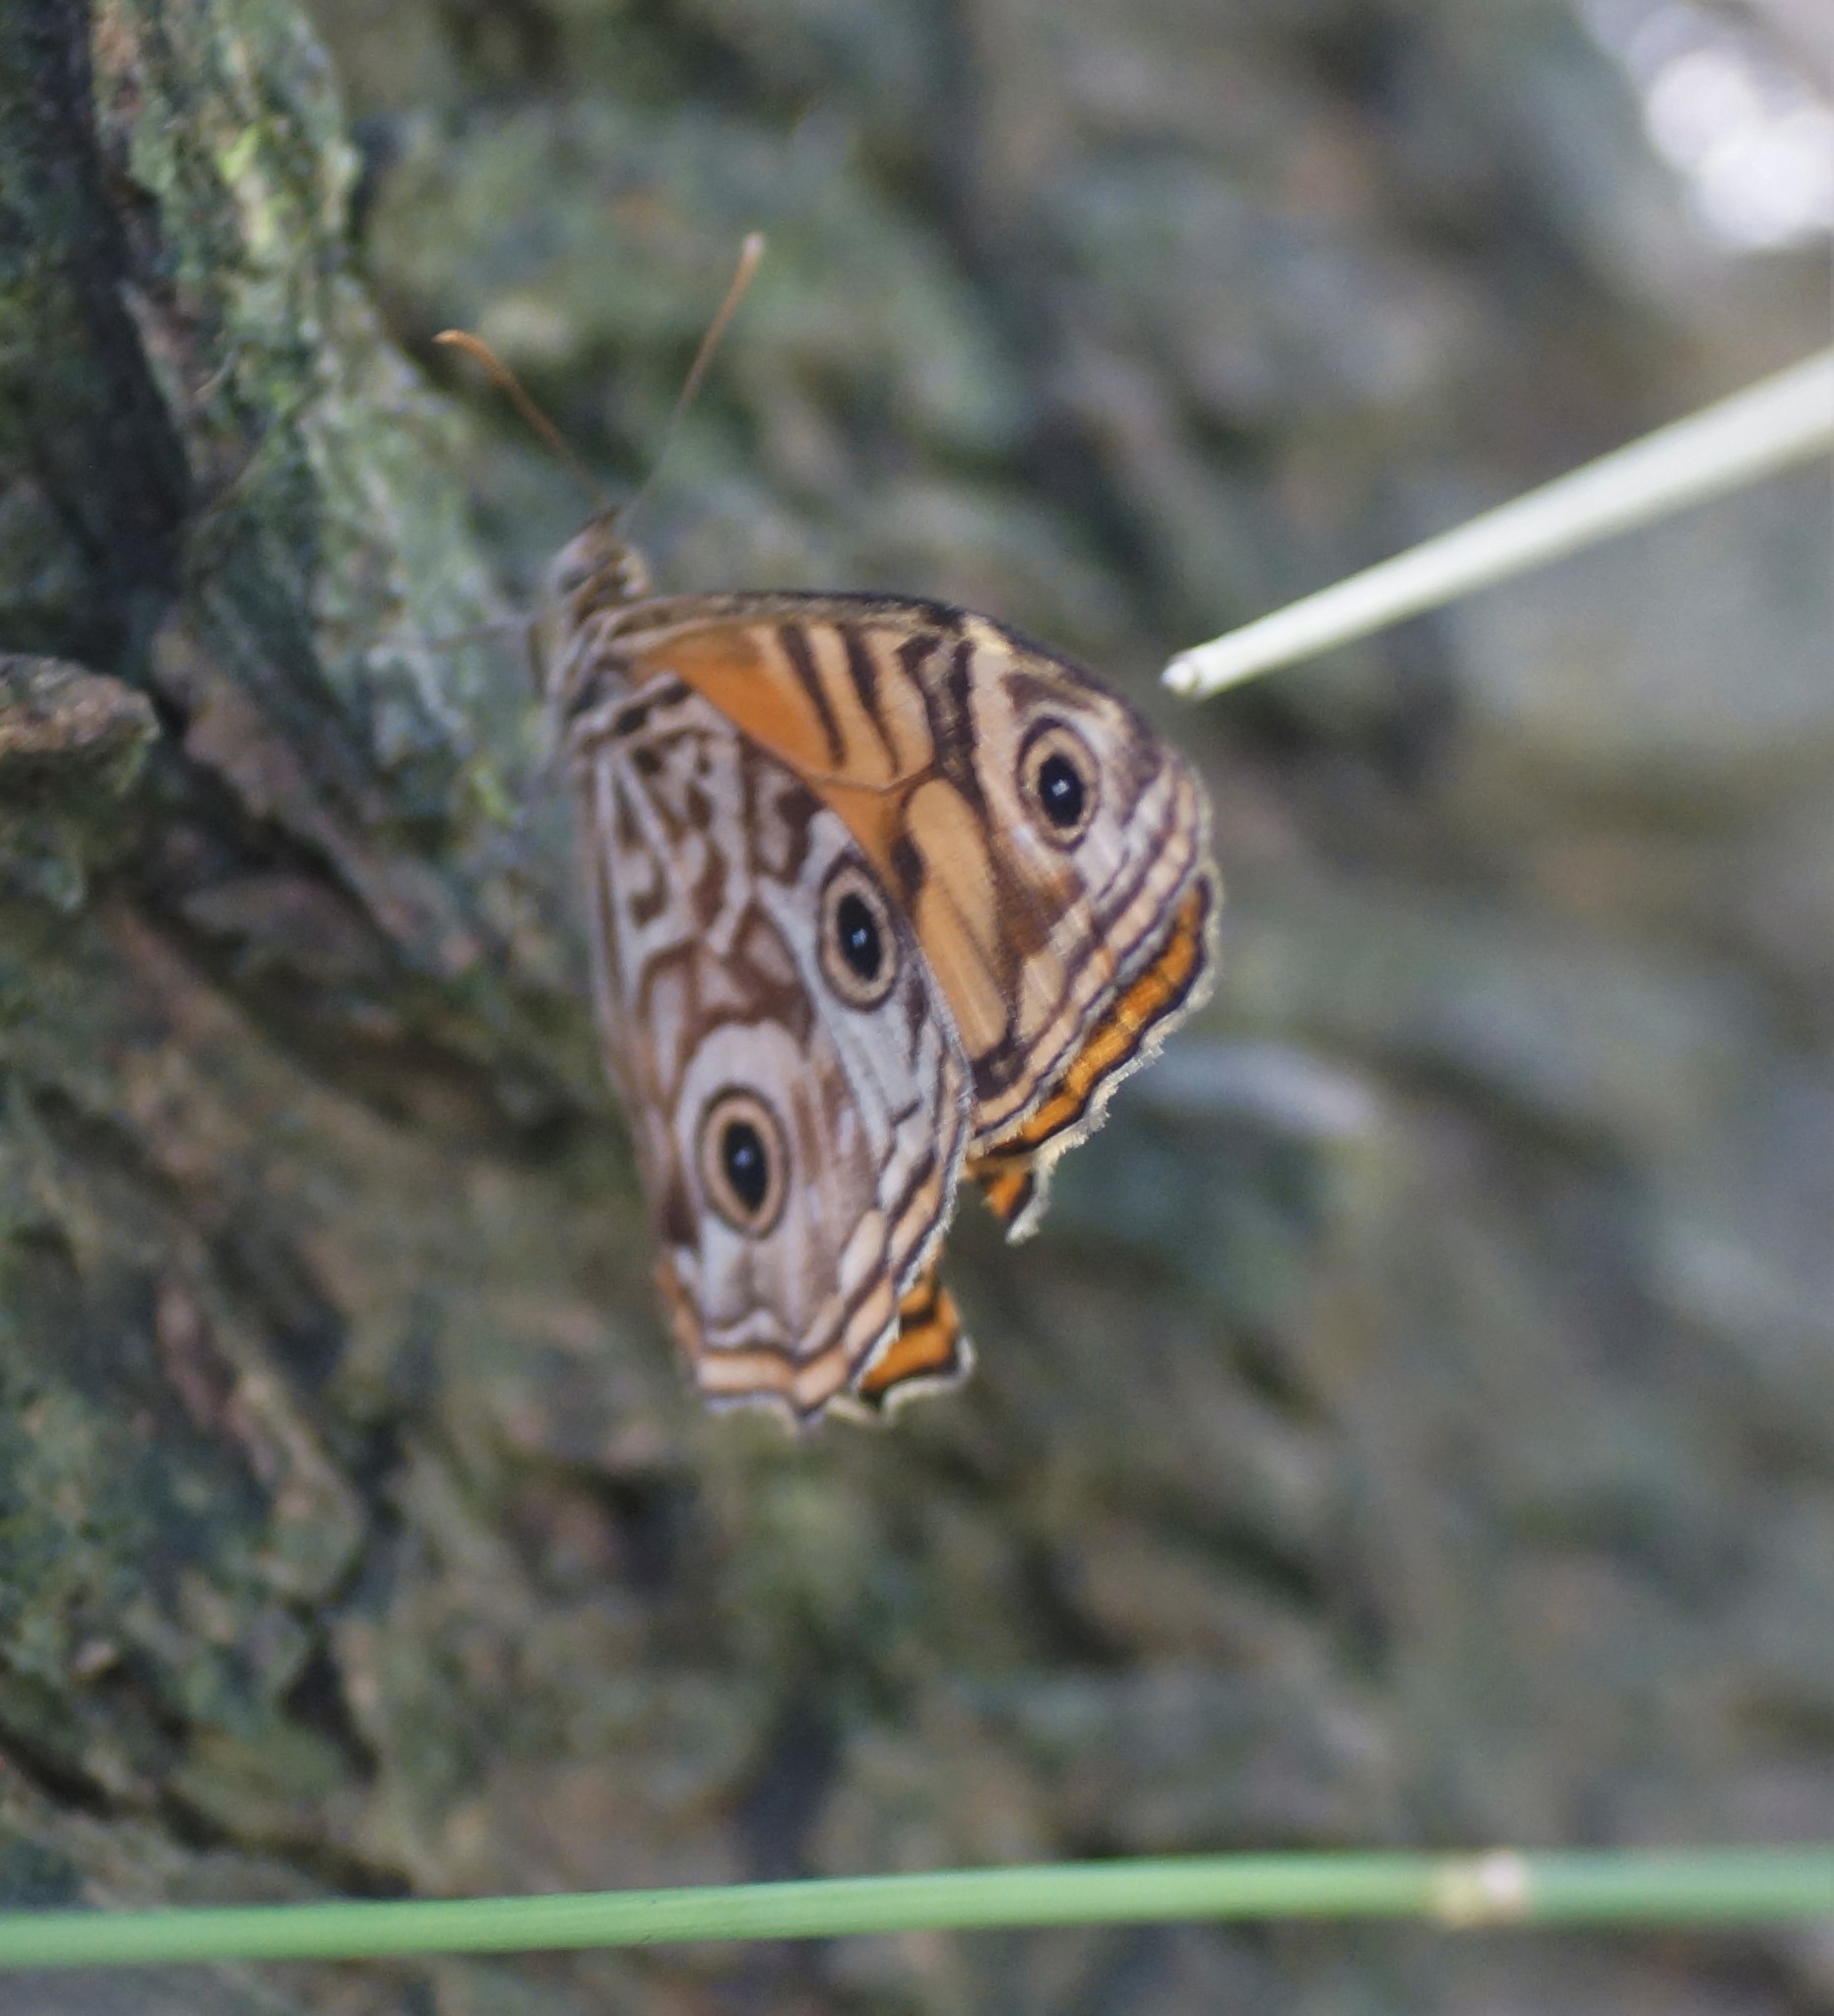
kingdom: Animalia
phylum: Arthropoda
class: Insecta
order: Lepidoptera
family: Nymphalidae
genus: Geitoneura
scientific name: Geitoneura acantha
